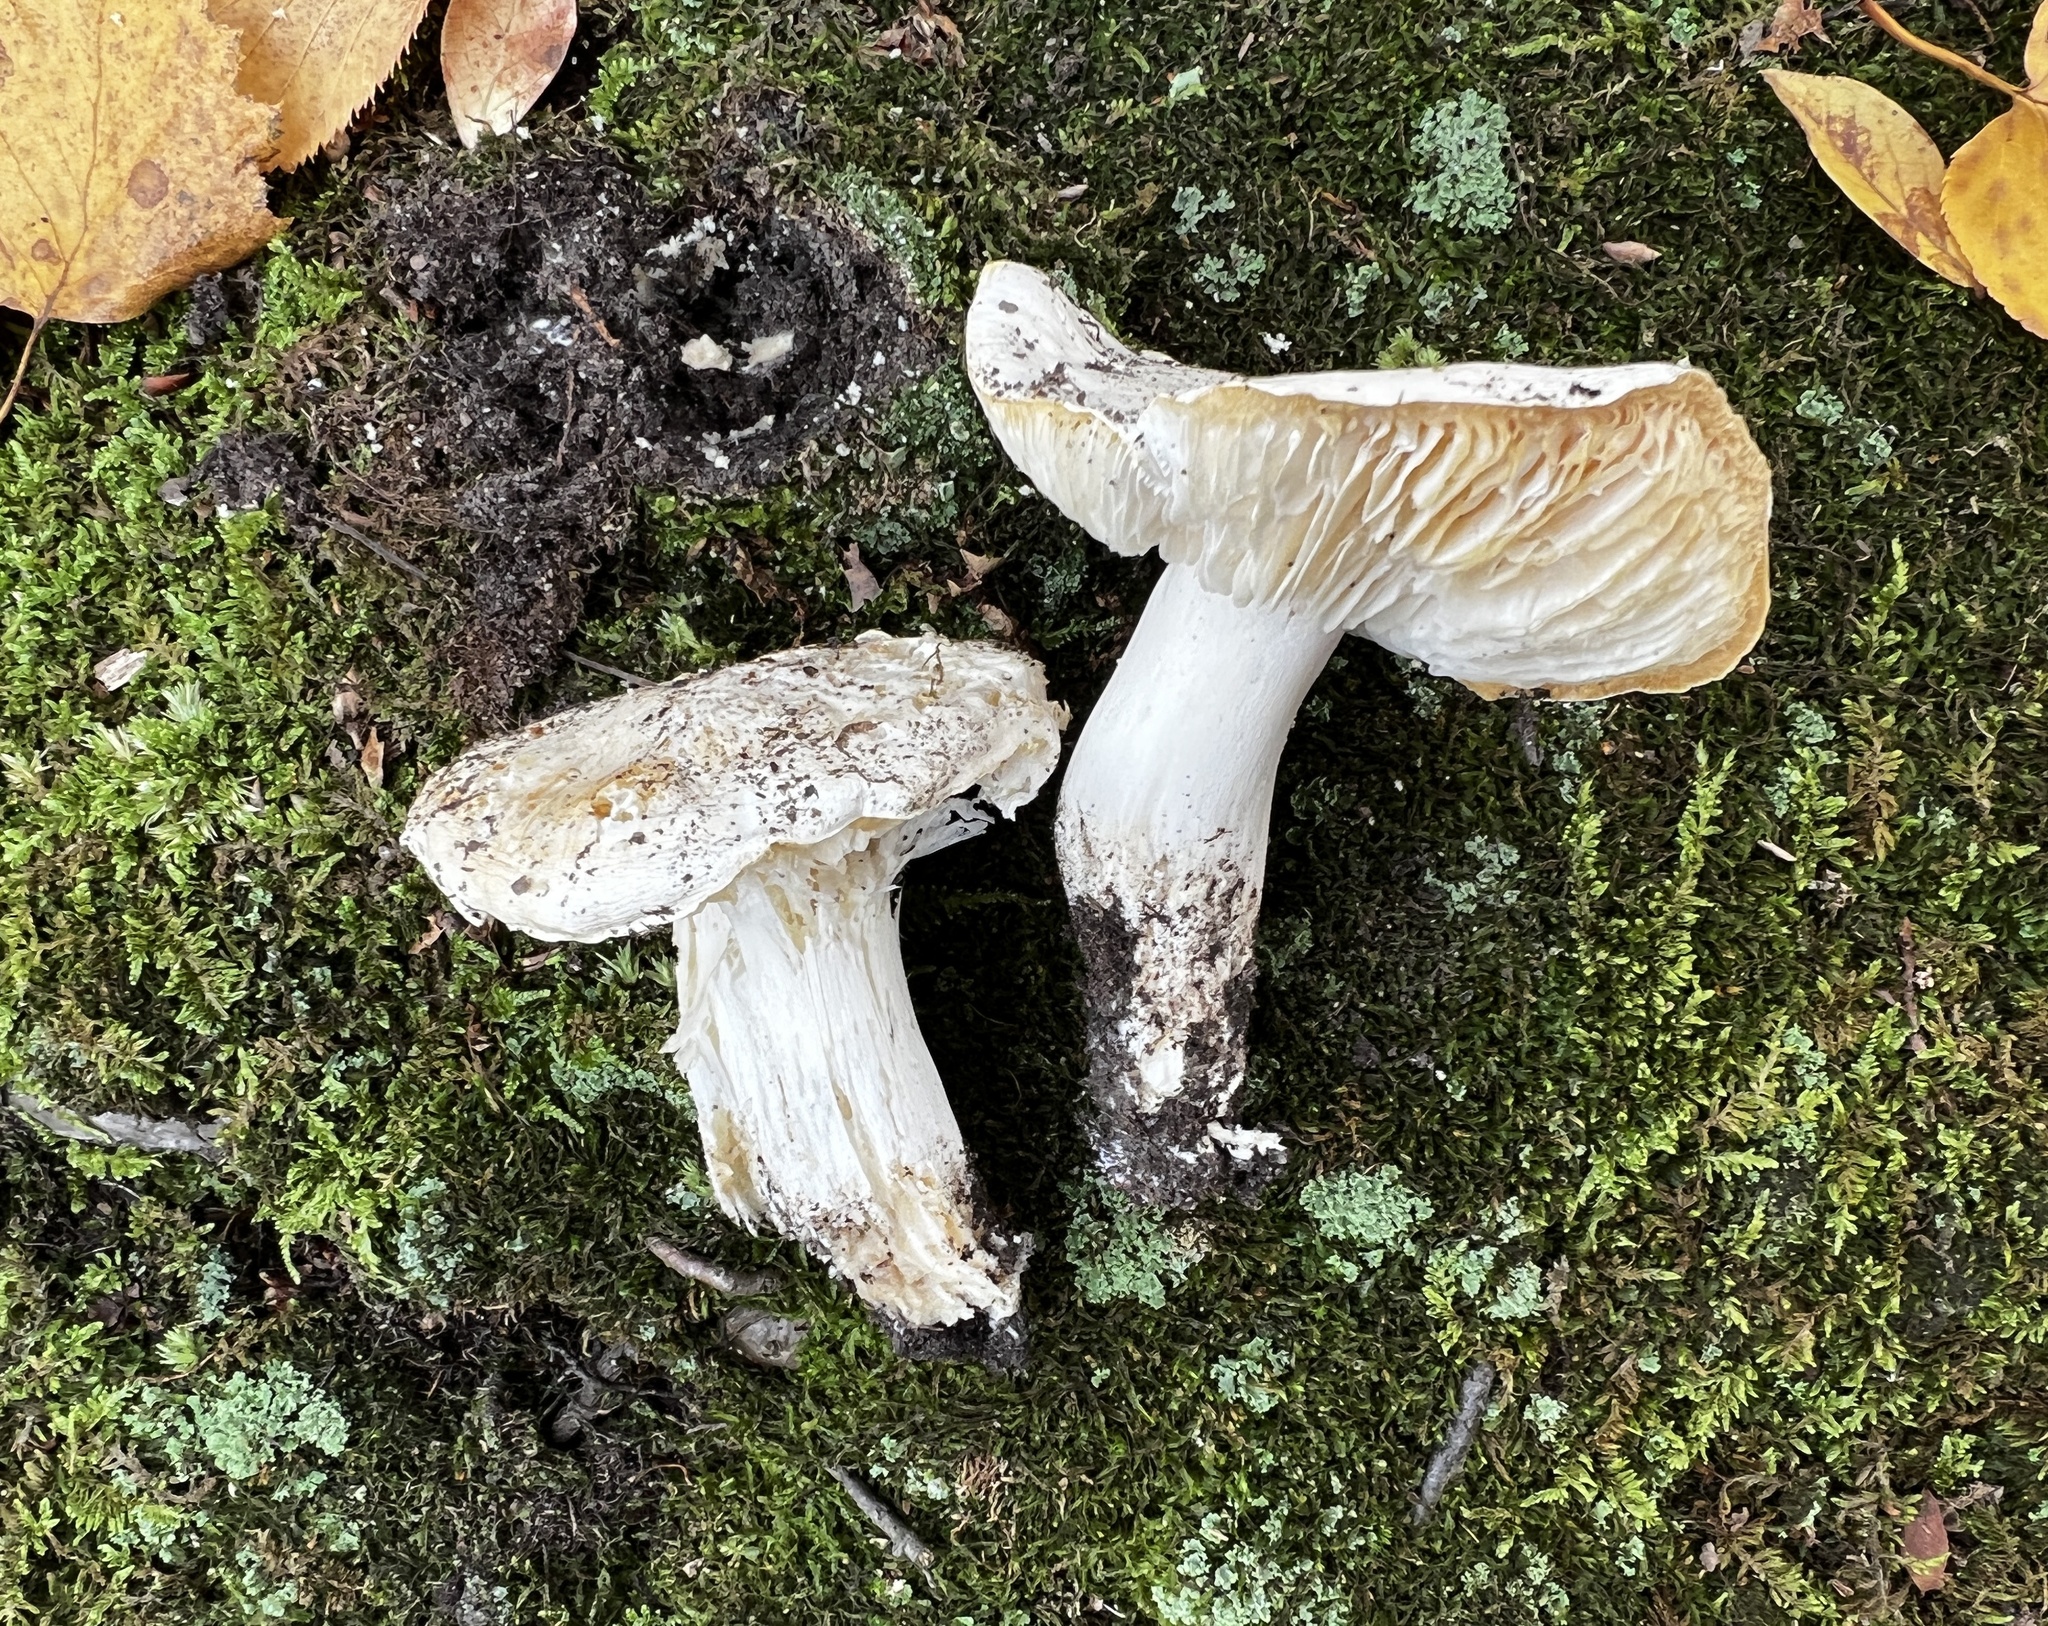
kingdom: Fungi
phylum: Basidiomycota
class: Agaricomycetes
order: Agaricales
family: Tricholomataceae
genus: Tricholoma
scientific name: Tricholoma columbetta
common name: Blue spot knight
